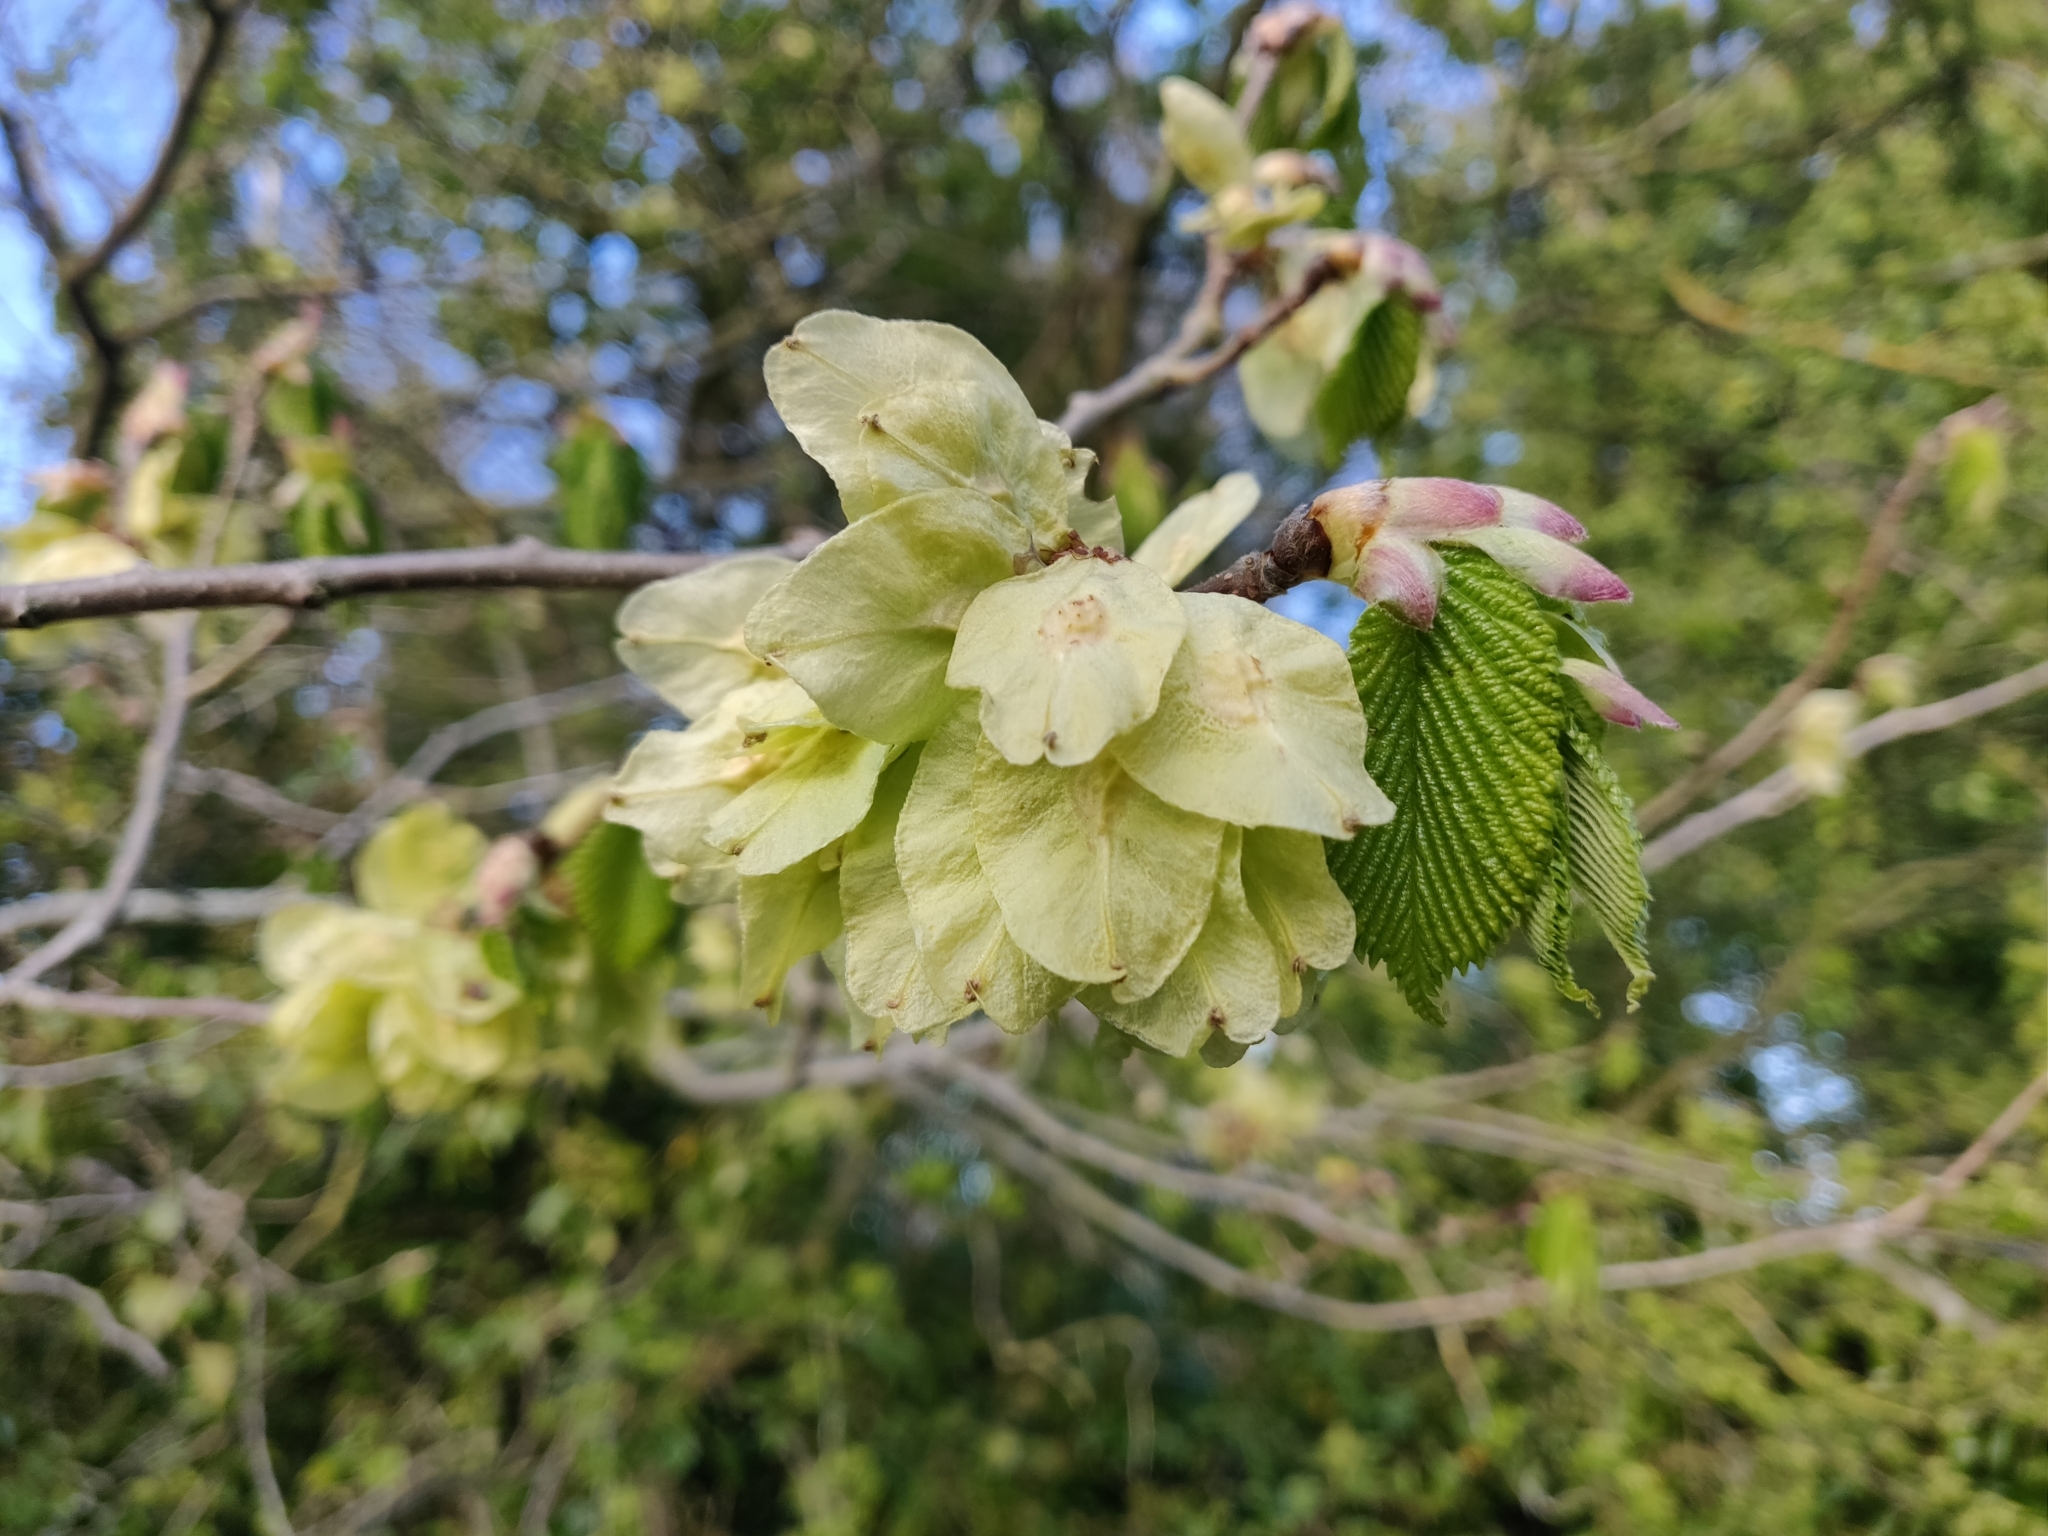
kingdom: Plantae
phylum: Tracheophyta
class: Magnoliopsida
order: Rosales
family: Ulmaceae
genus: Ulmus
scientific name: Ulmus glabra
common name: Wych elm
